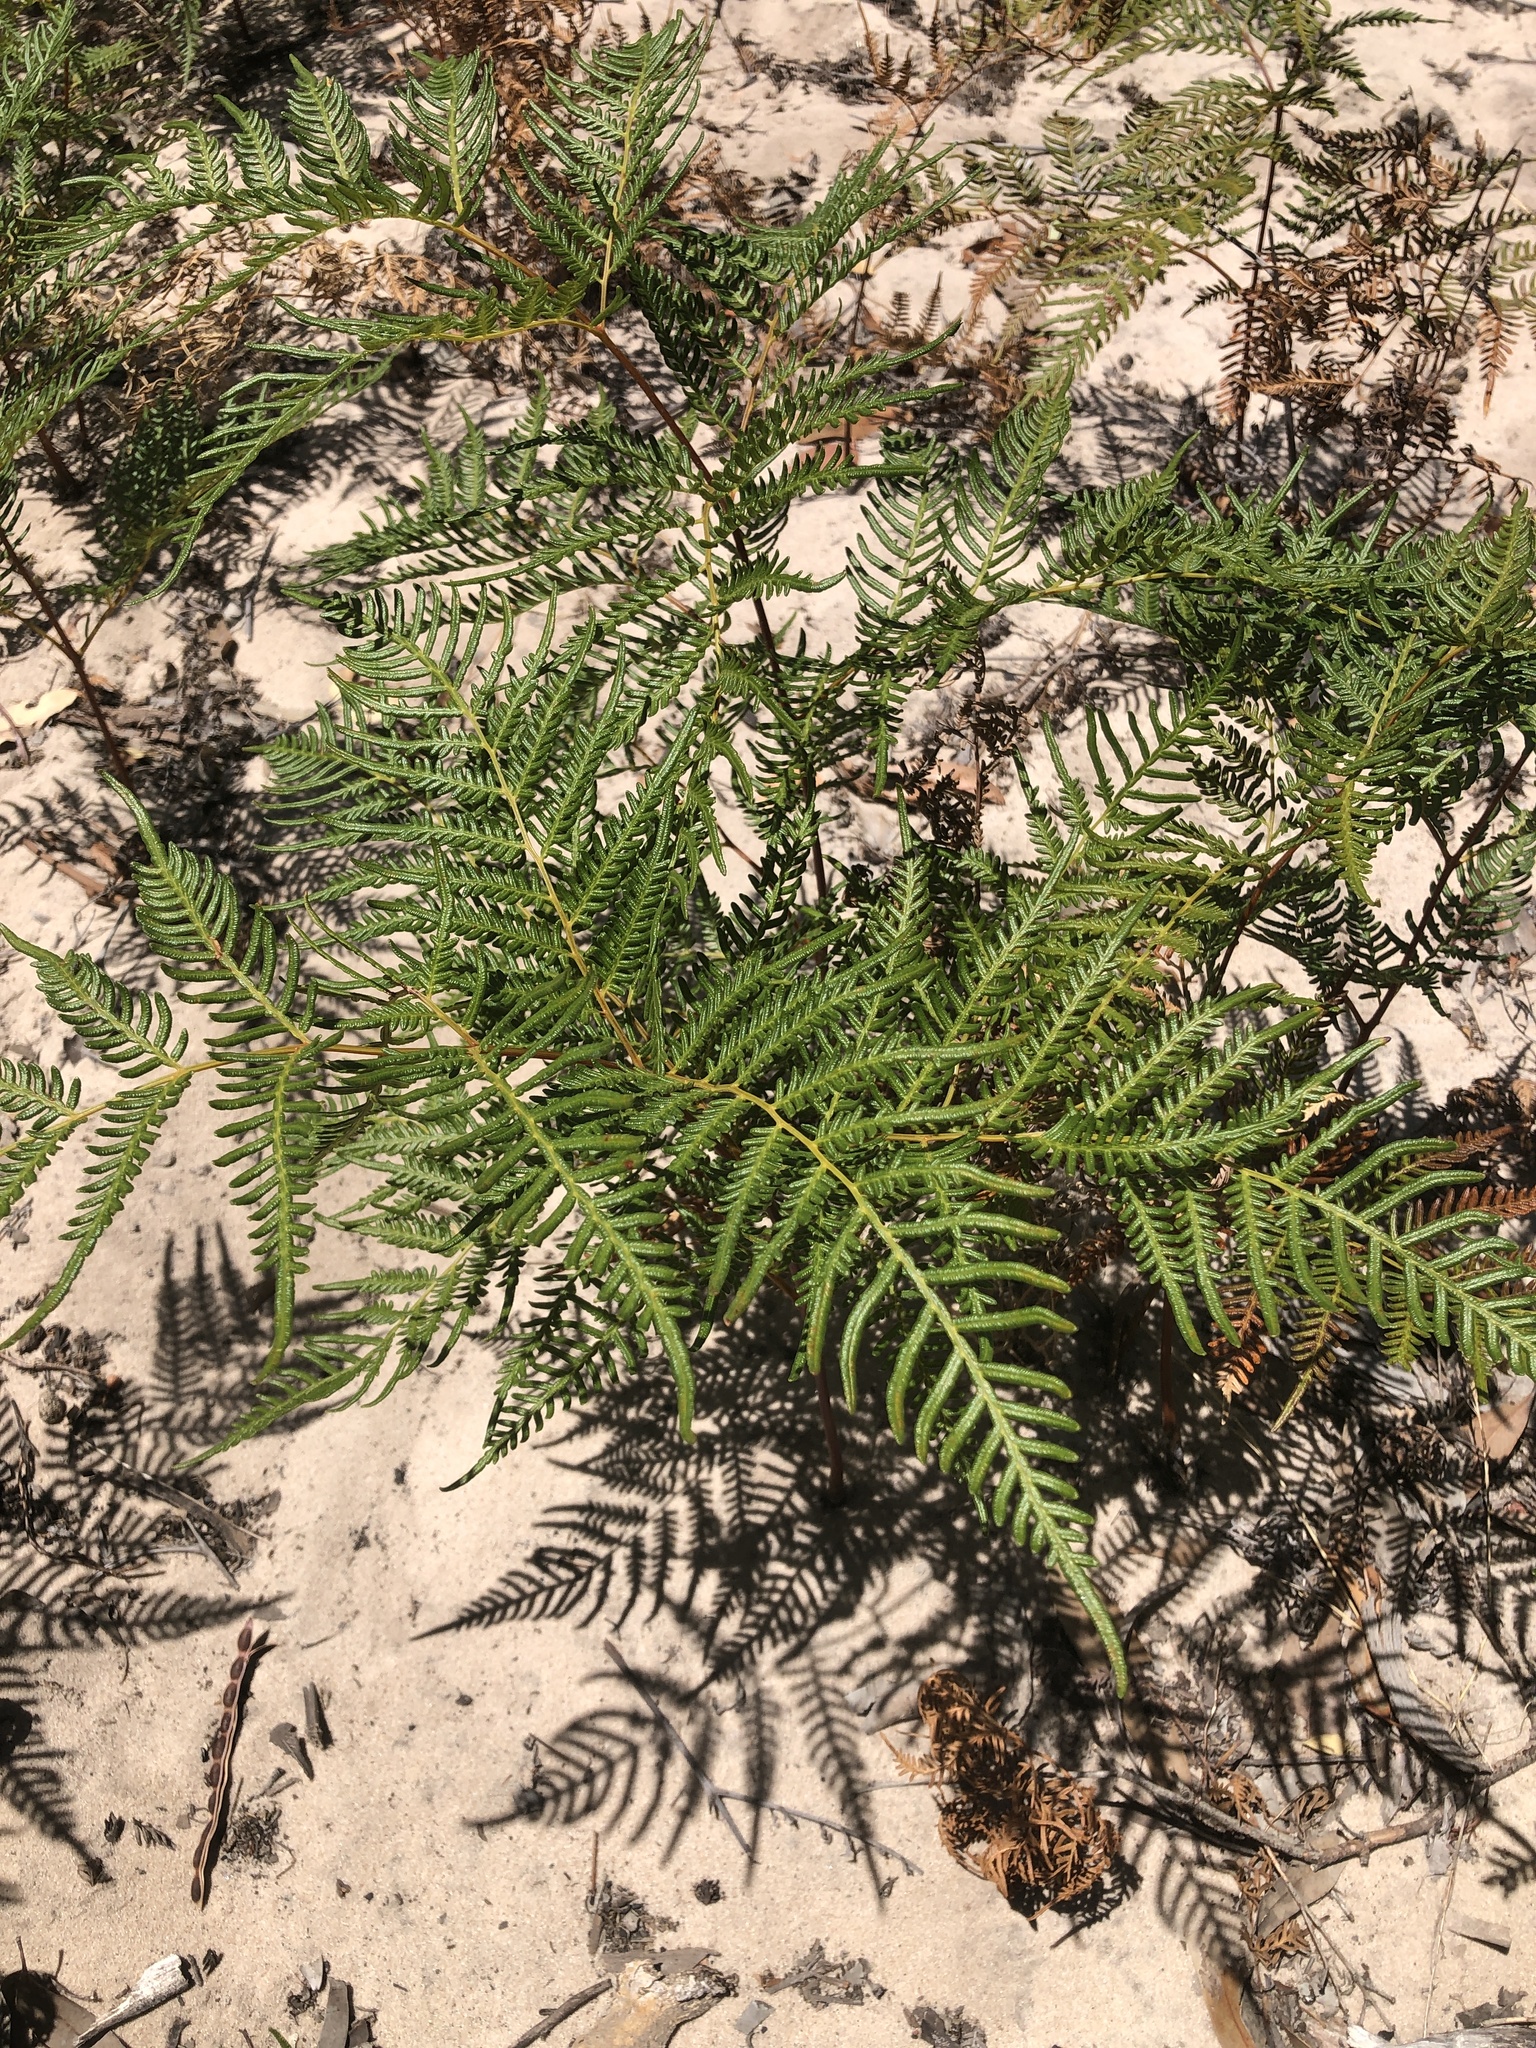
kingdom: Plantae
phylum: Tracheophyta
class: Polypodiopsida
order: Polypodiales
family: Dennstaedtiaceae
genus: Pteridium
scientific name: Pteridium esculentum
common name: Bracken fern
